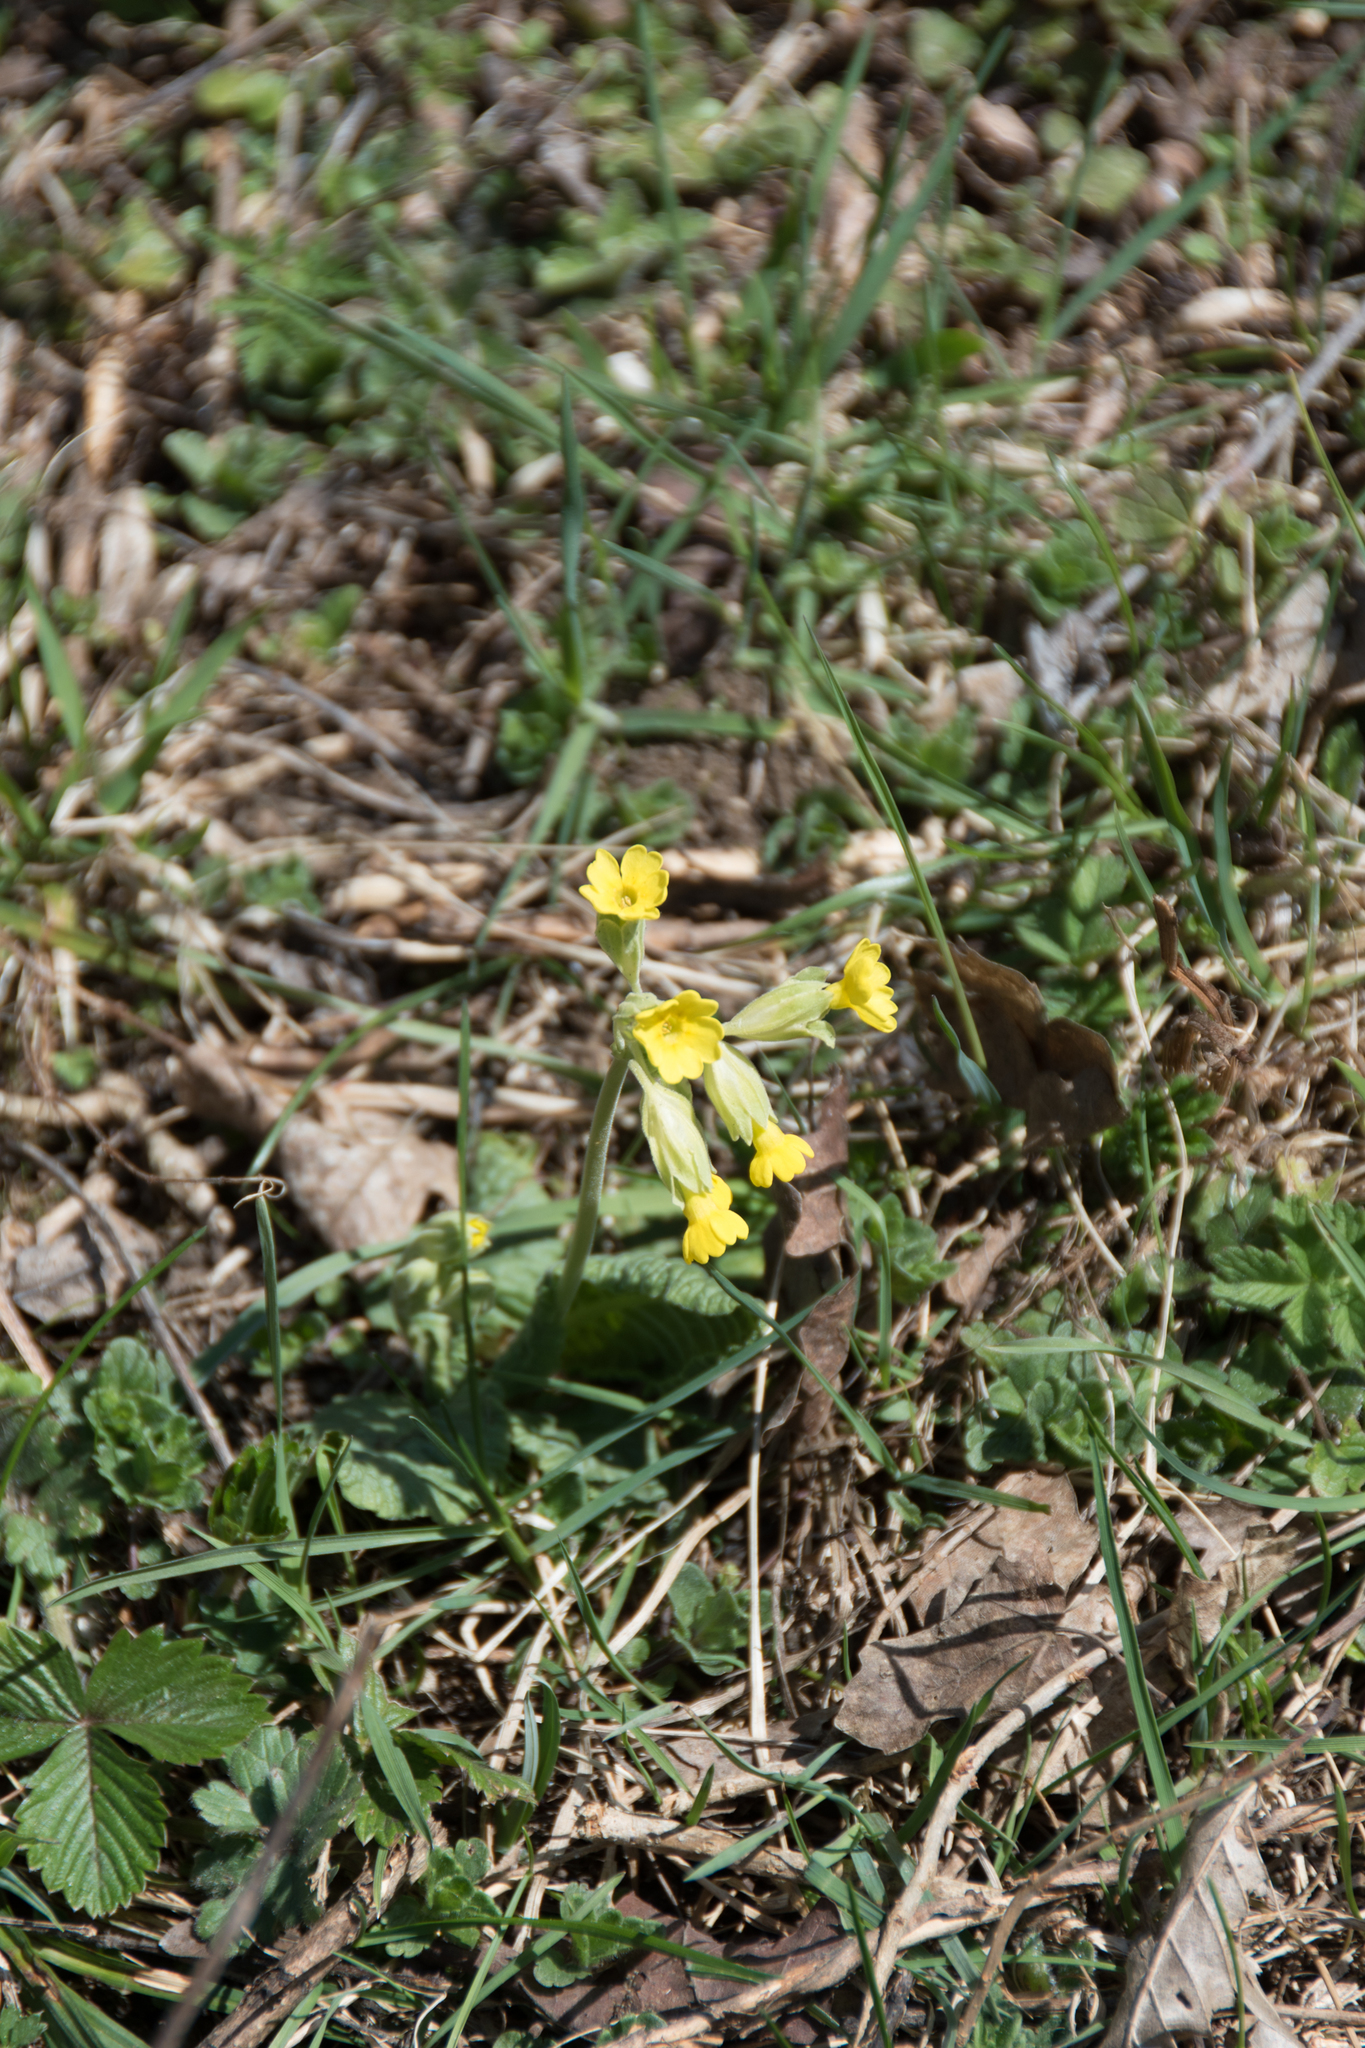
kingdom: Plantae
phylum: Tracheophyta
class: Magnoliopsida
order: Ericales
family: Primulaceae
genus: Primula
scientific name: Primula veris
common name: Cowslip
